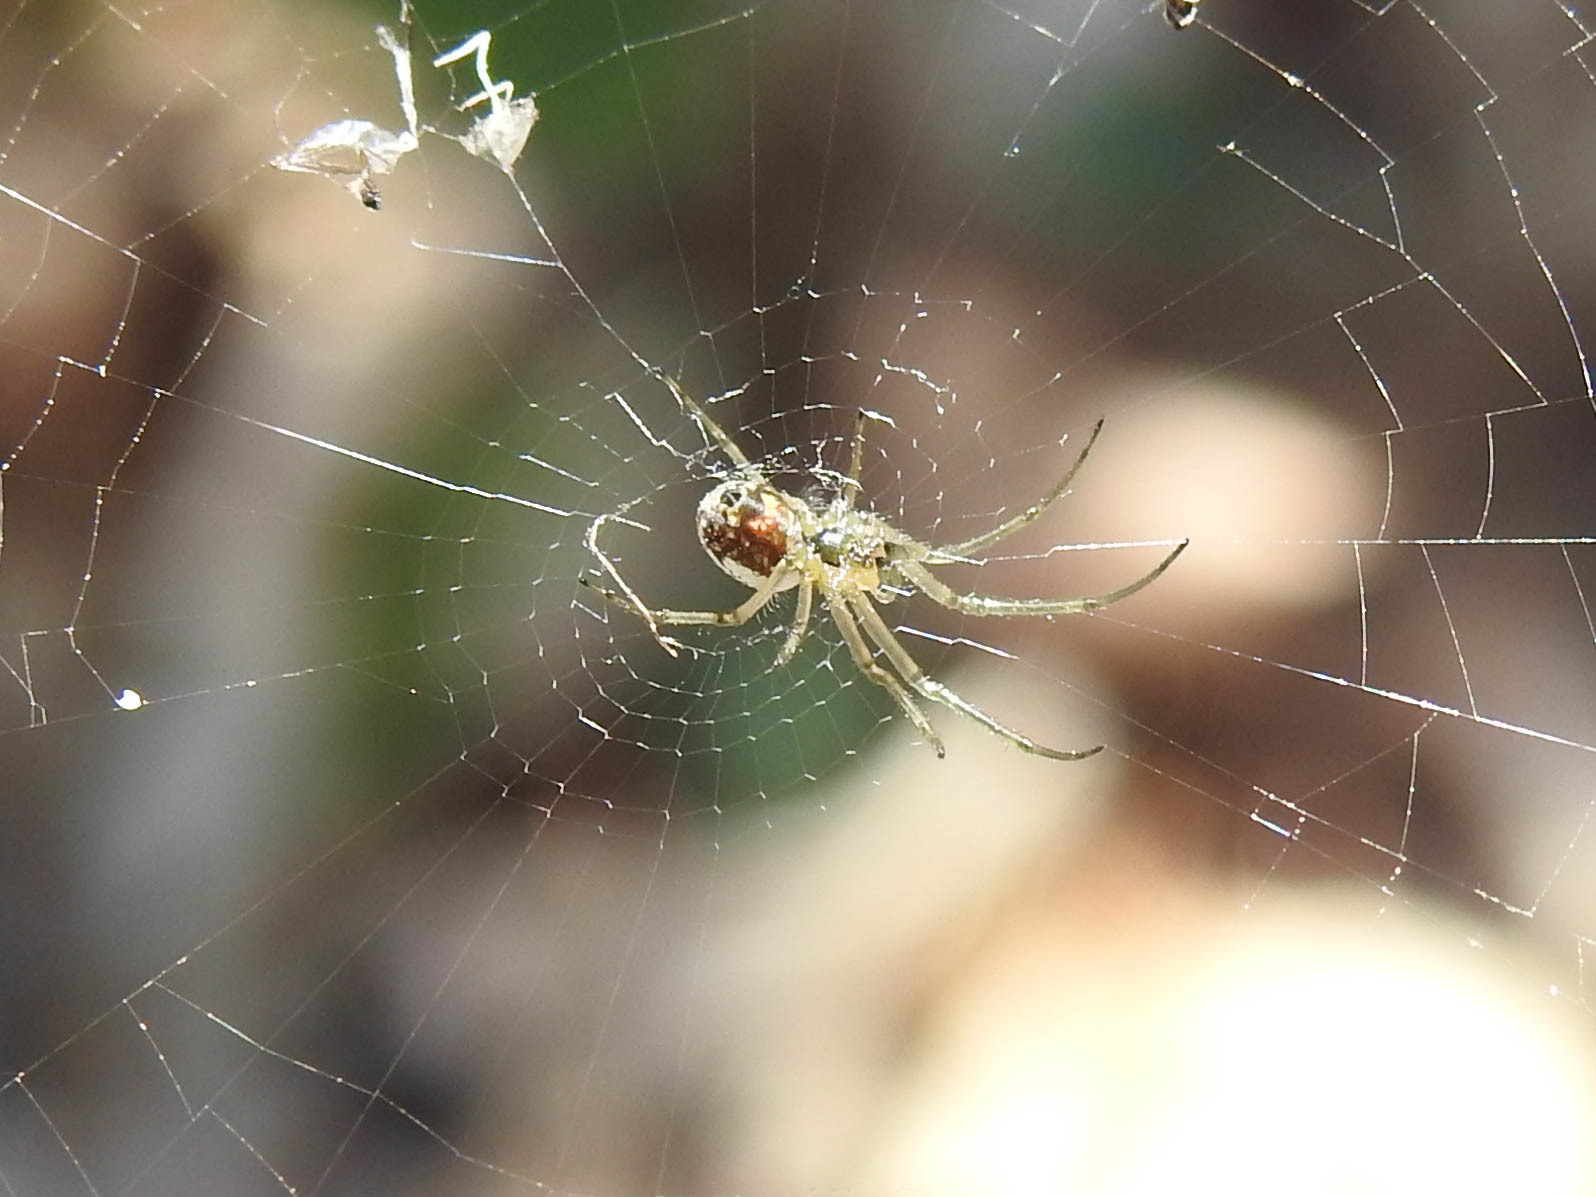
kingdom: Animalia
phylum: Arthropoda
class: Arachnida
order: Araneae
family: Tetragnathidae
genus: Leucauge
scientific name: Leucauge venusta
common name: Longjawed orb weavers
